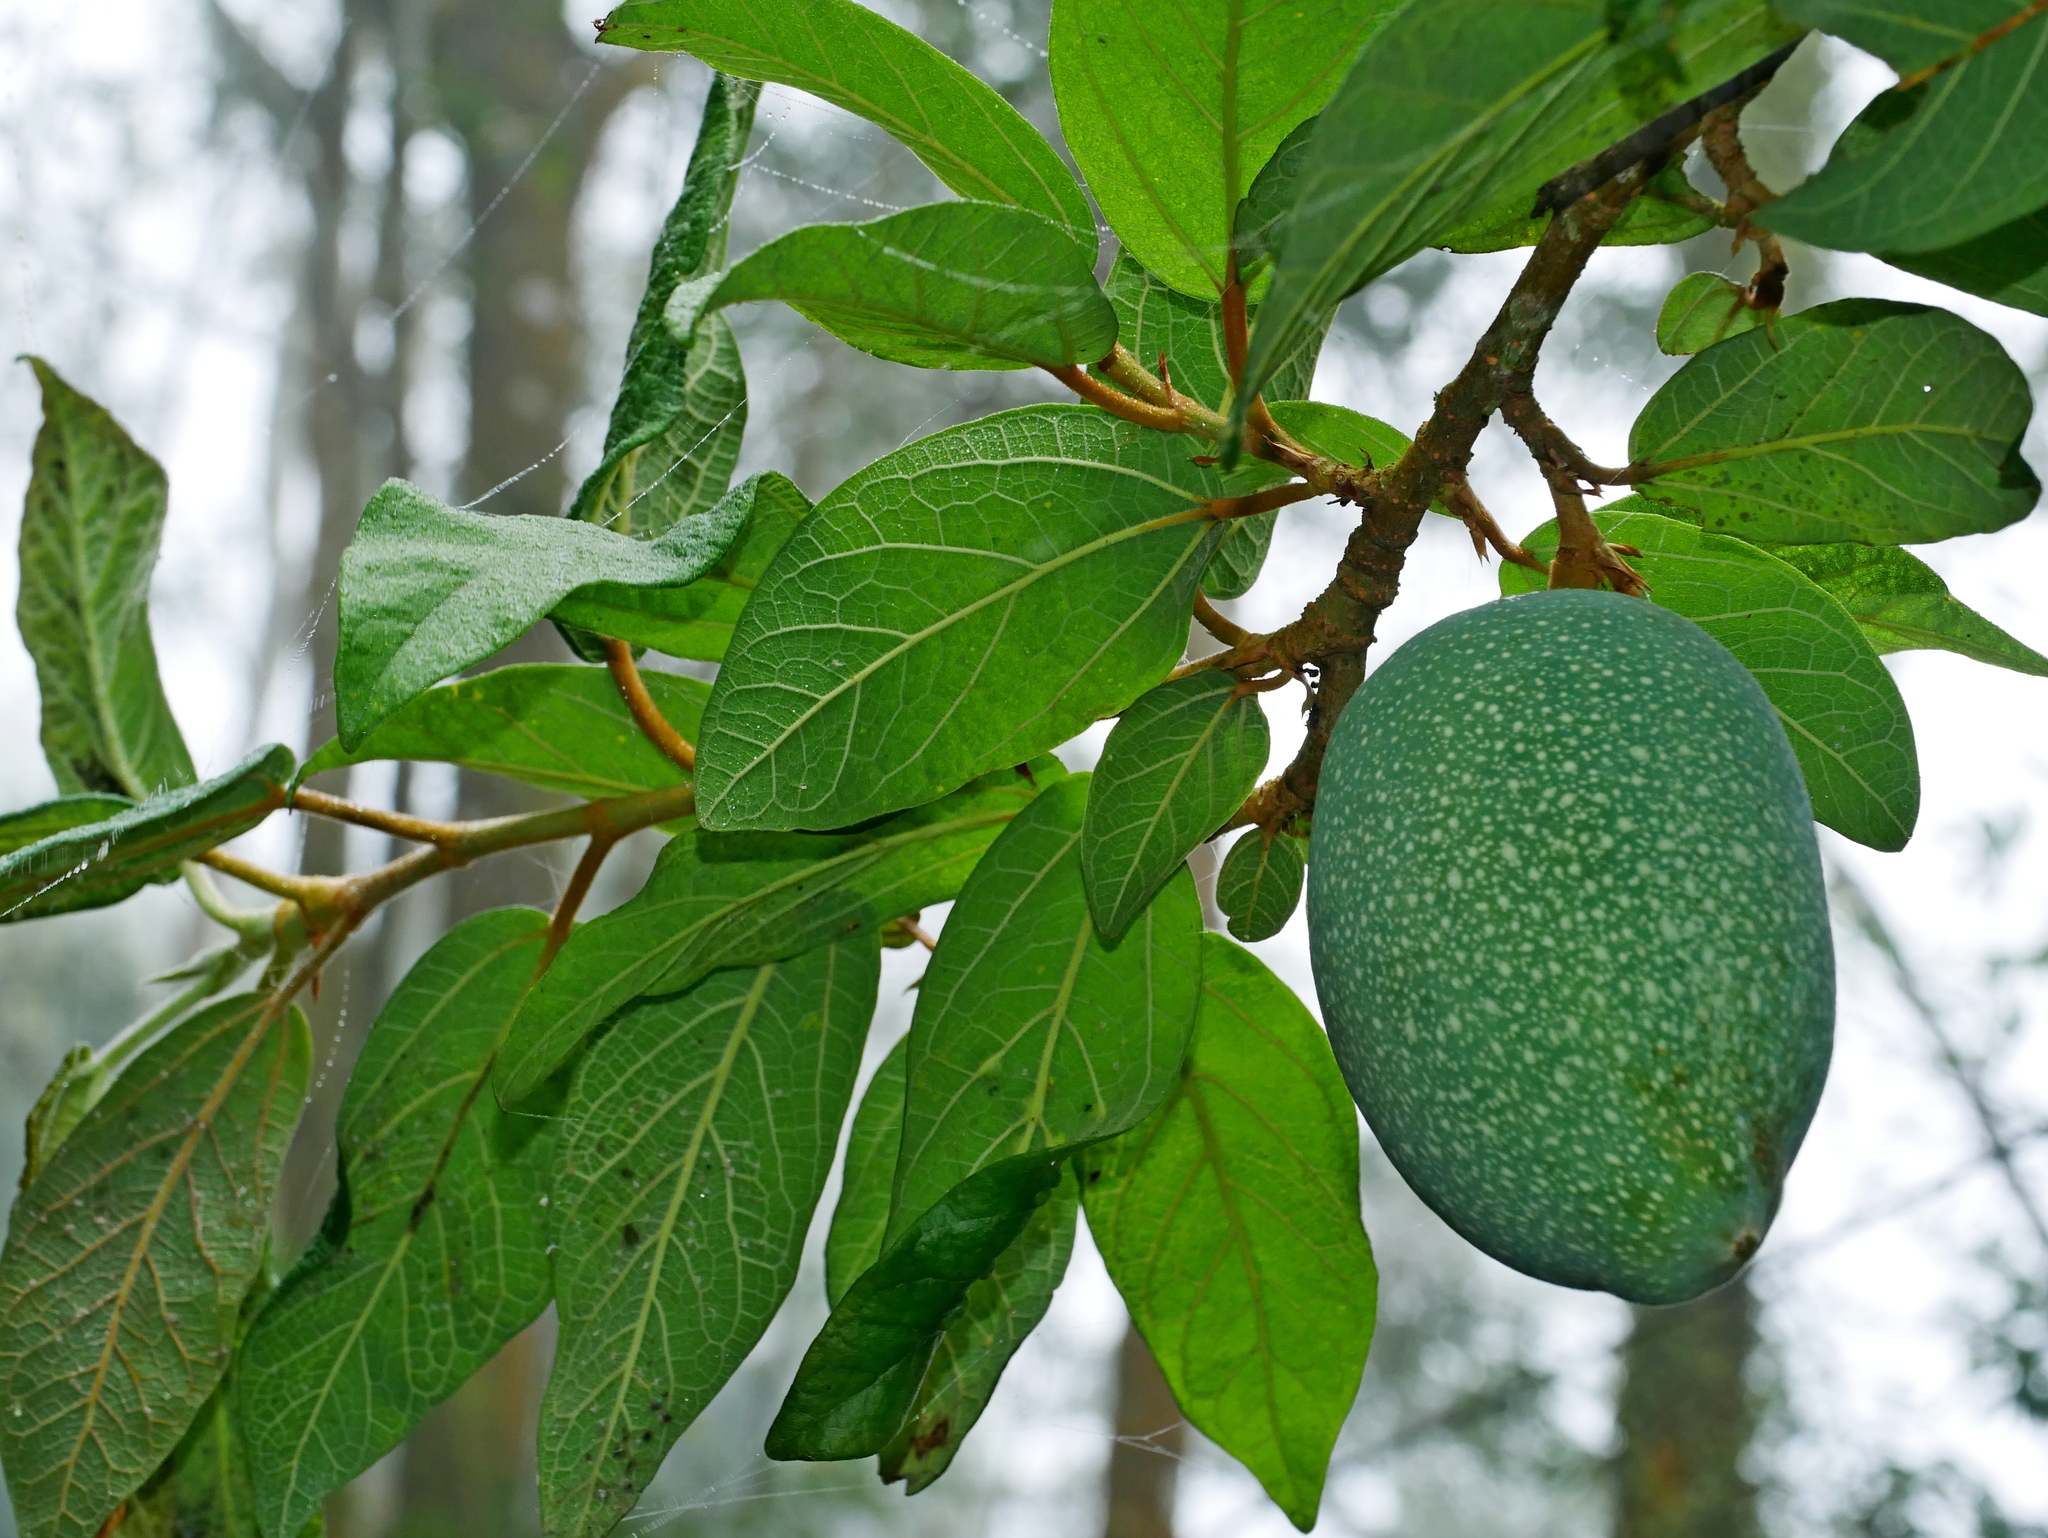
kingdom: Plantae
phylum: Tracheophyta
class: Magnoliopsida
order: Rosales
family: Moraceae
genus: Ficus
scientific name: Ficus pumila
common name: Climbingfig
